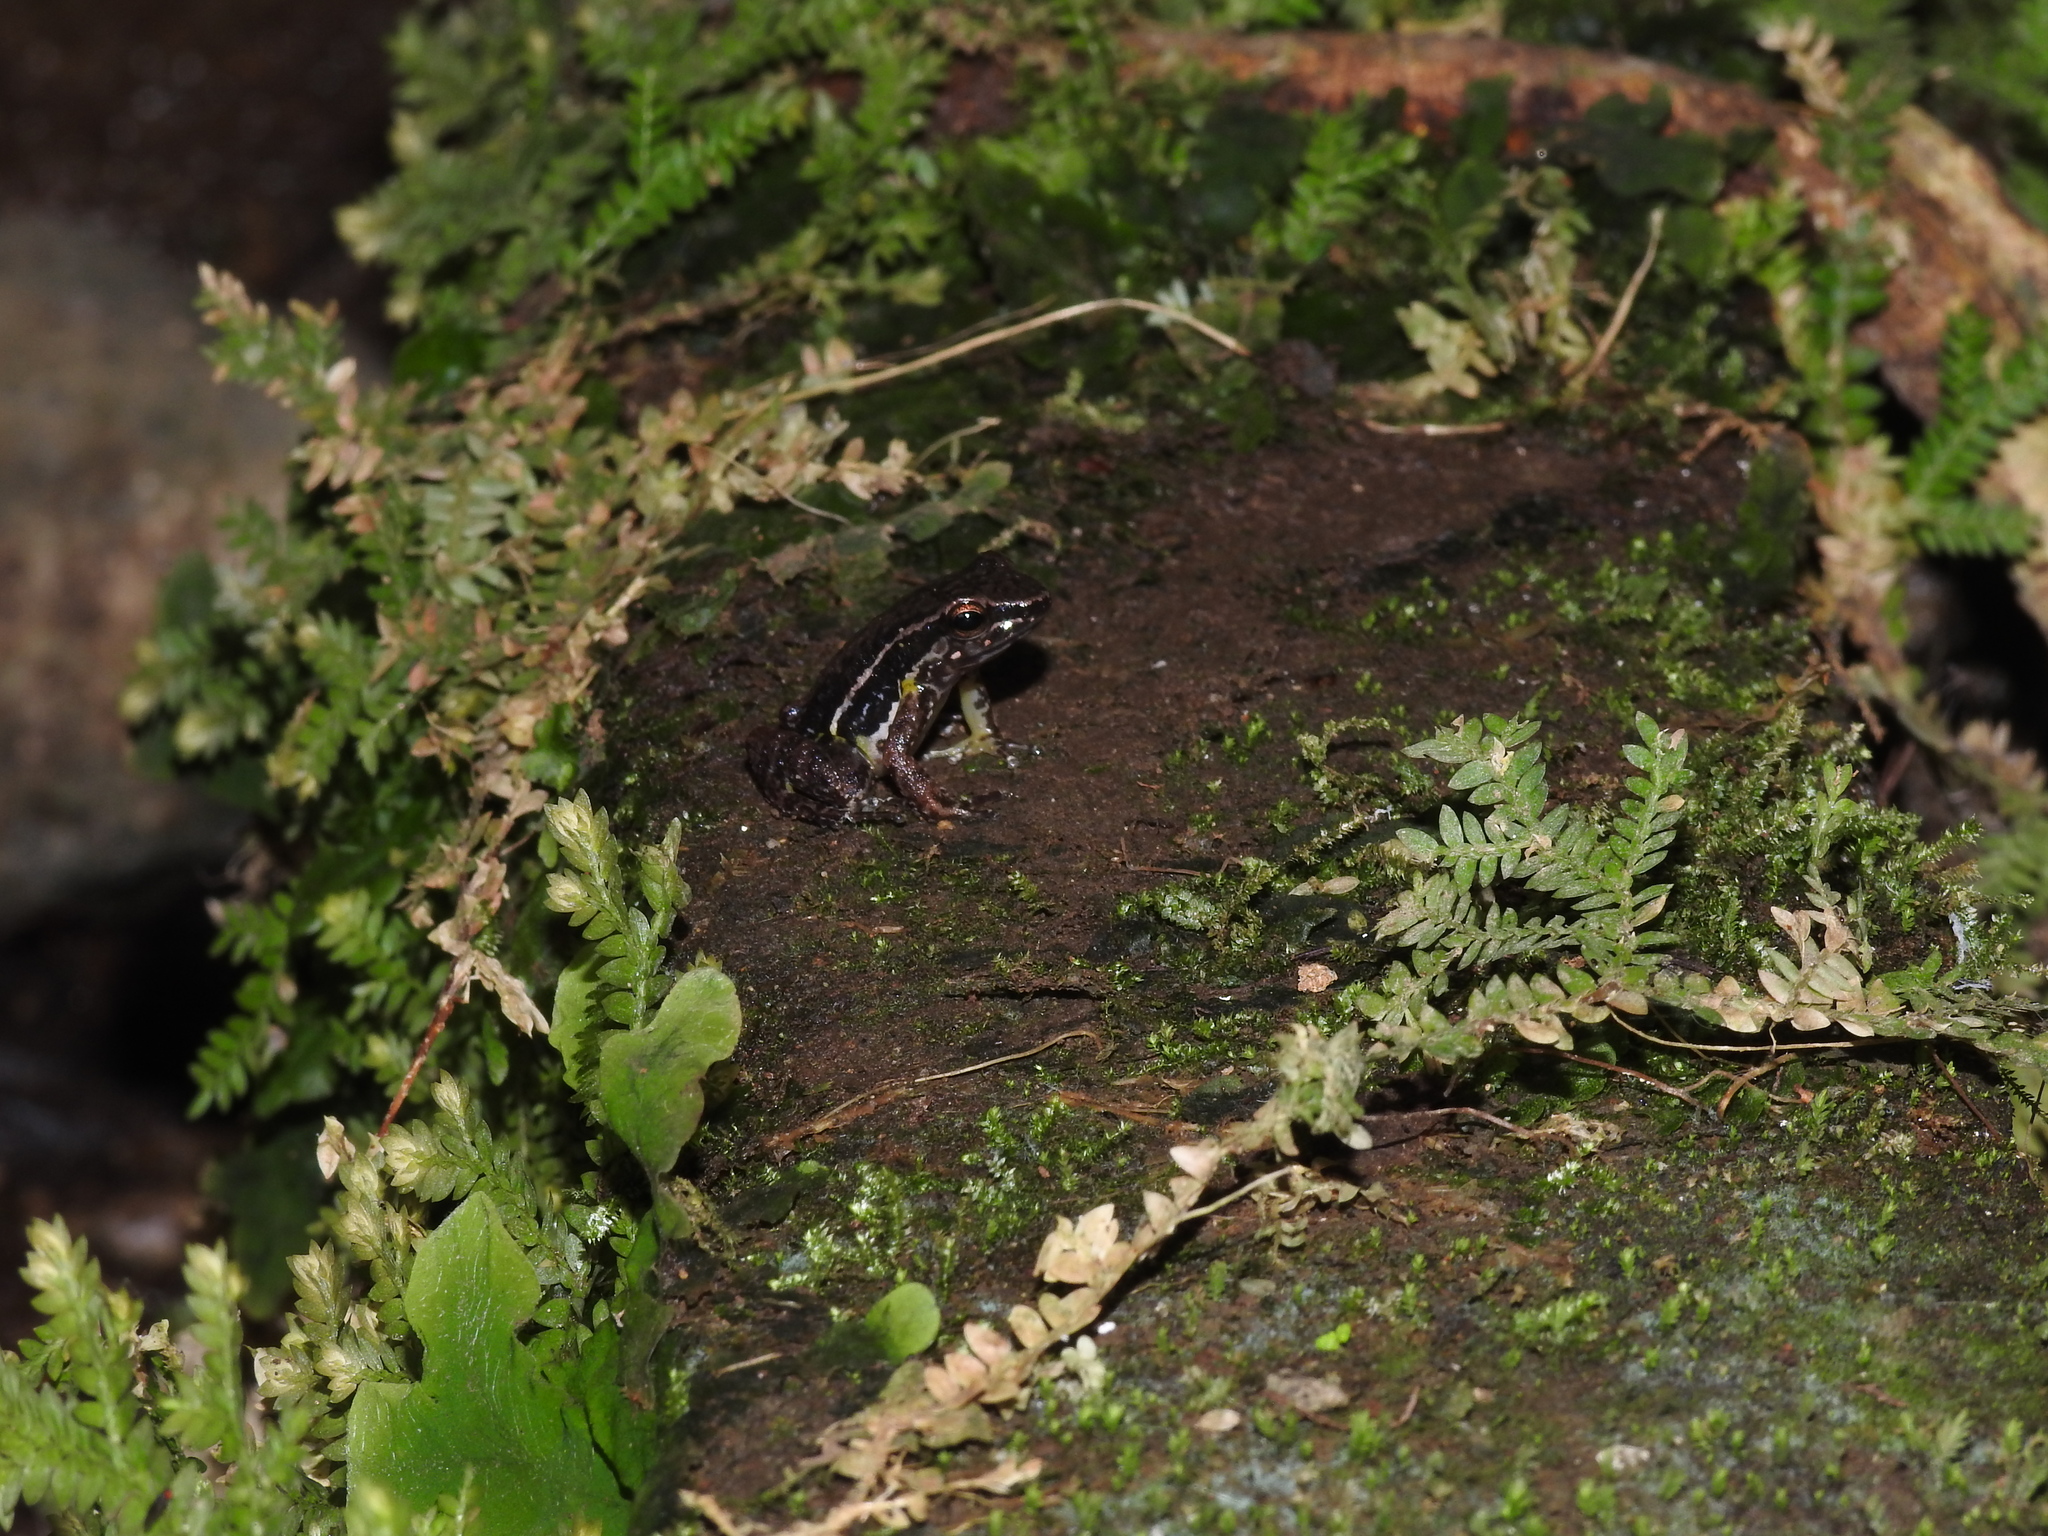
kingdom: Animalia
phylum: Chordata
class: Amphibia
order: Anura
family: Dendrobatidae
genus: Leucostethus
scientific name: Leucostethus brachistriatus
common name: Stripe-throated rocket frog
